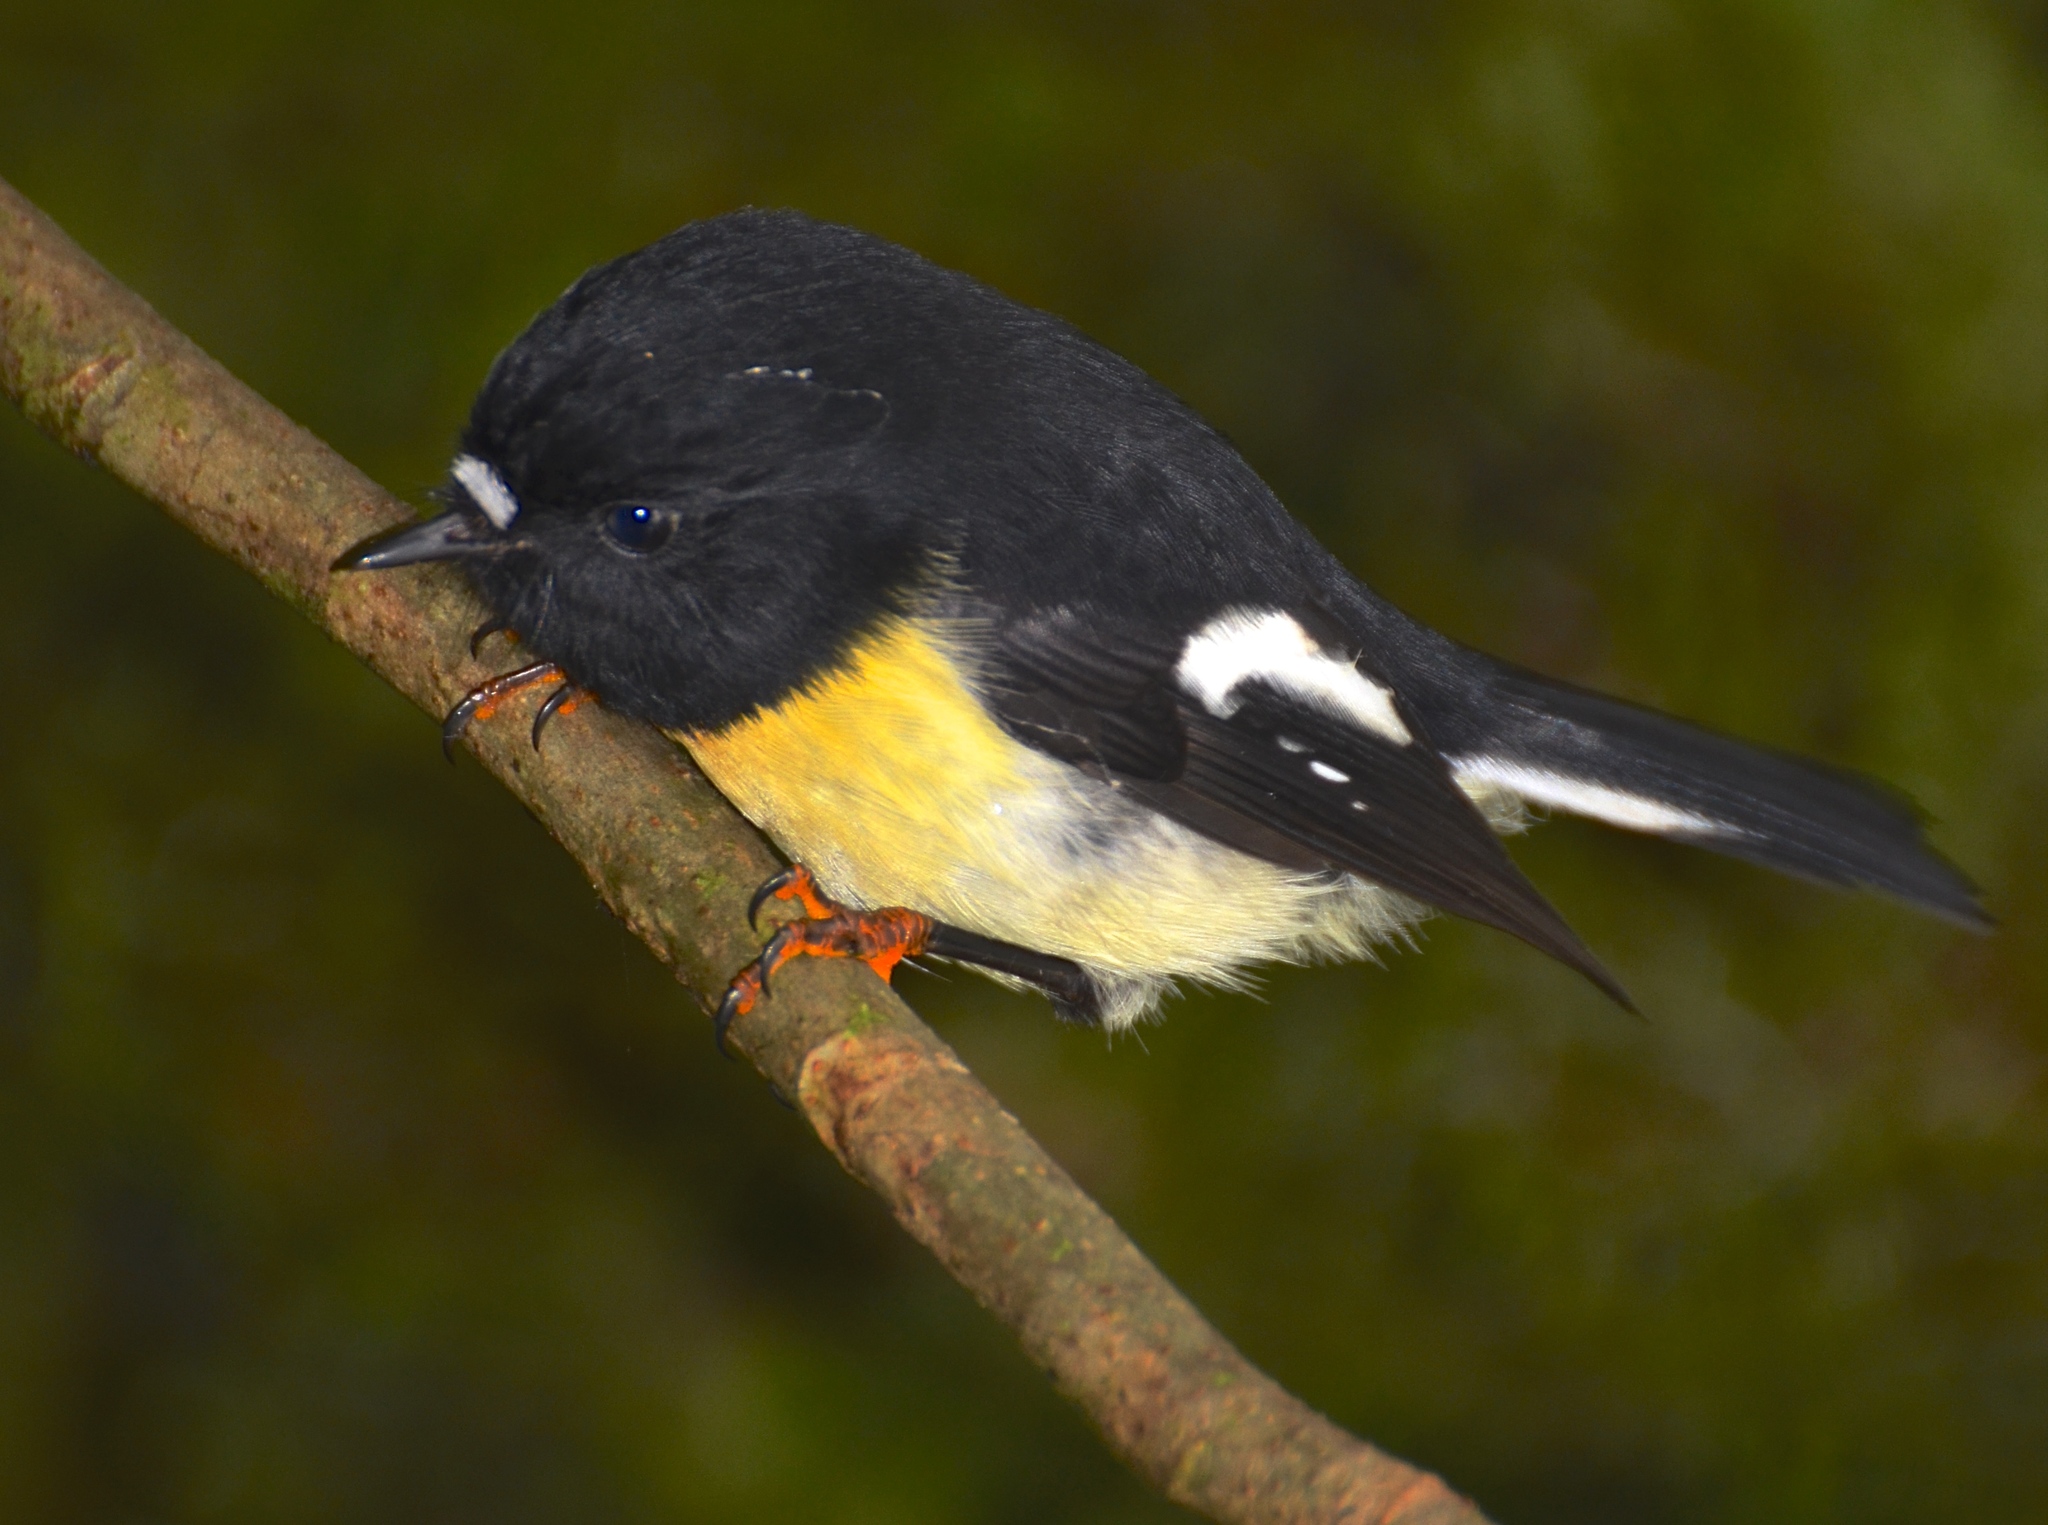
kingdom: Animalia
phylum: Chordata
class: Aves
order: Passeriformes
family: Petroicidae
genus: Petroica
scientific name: Petroica macrocephala
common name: Tomtit
